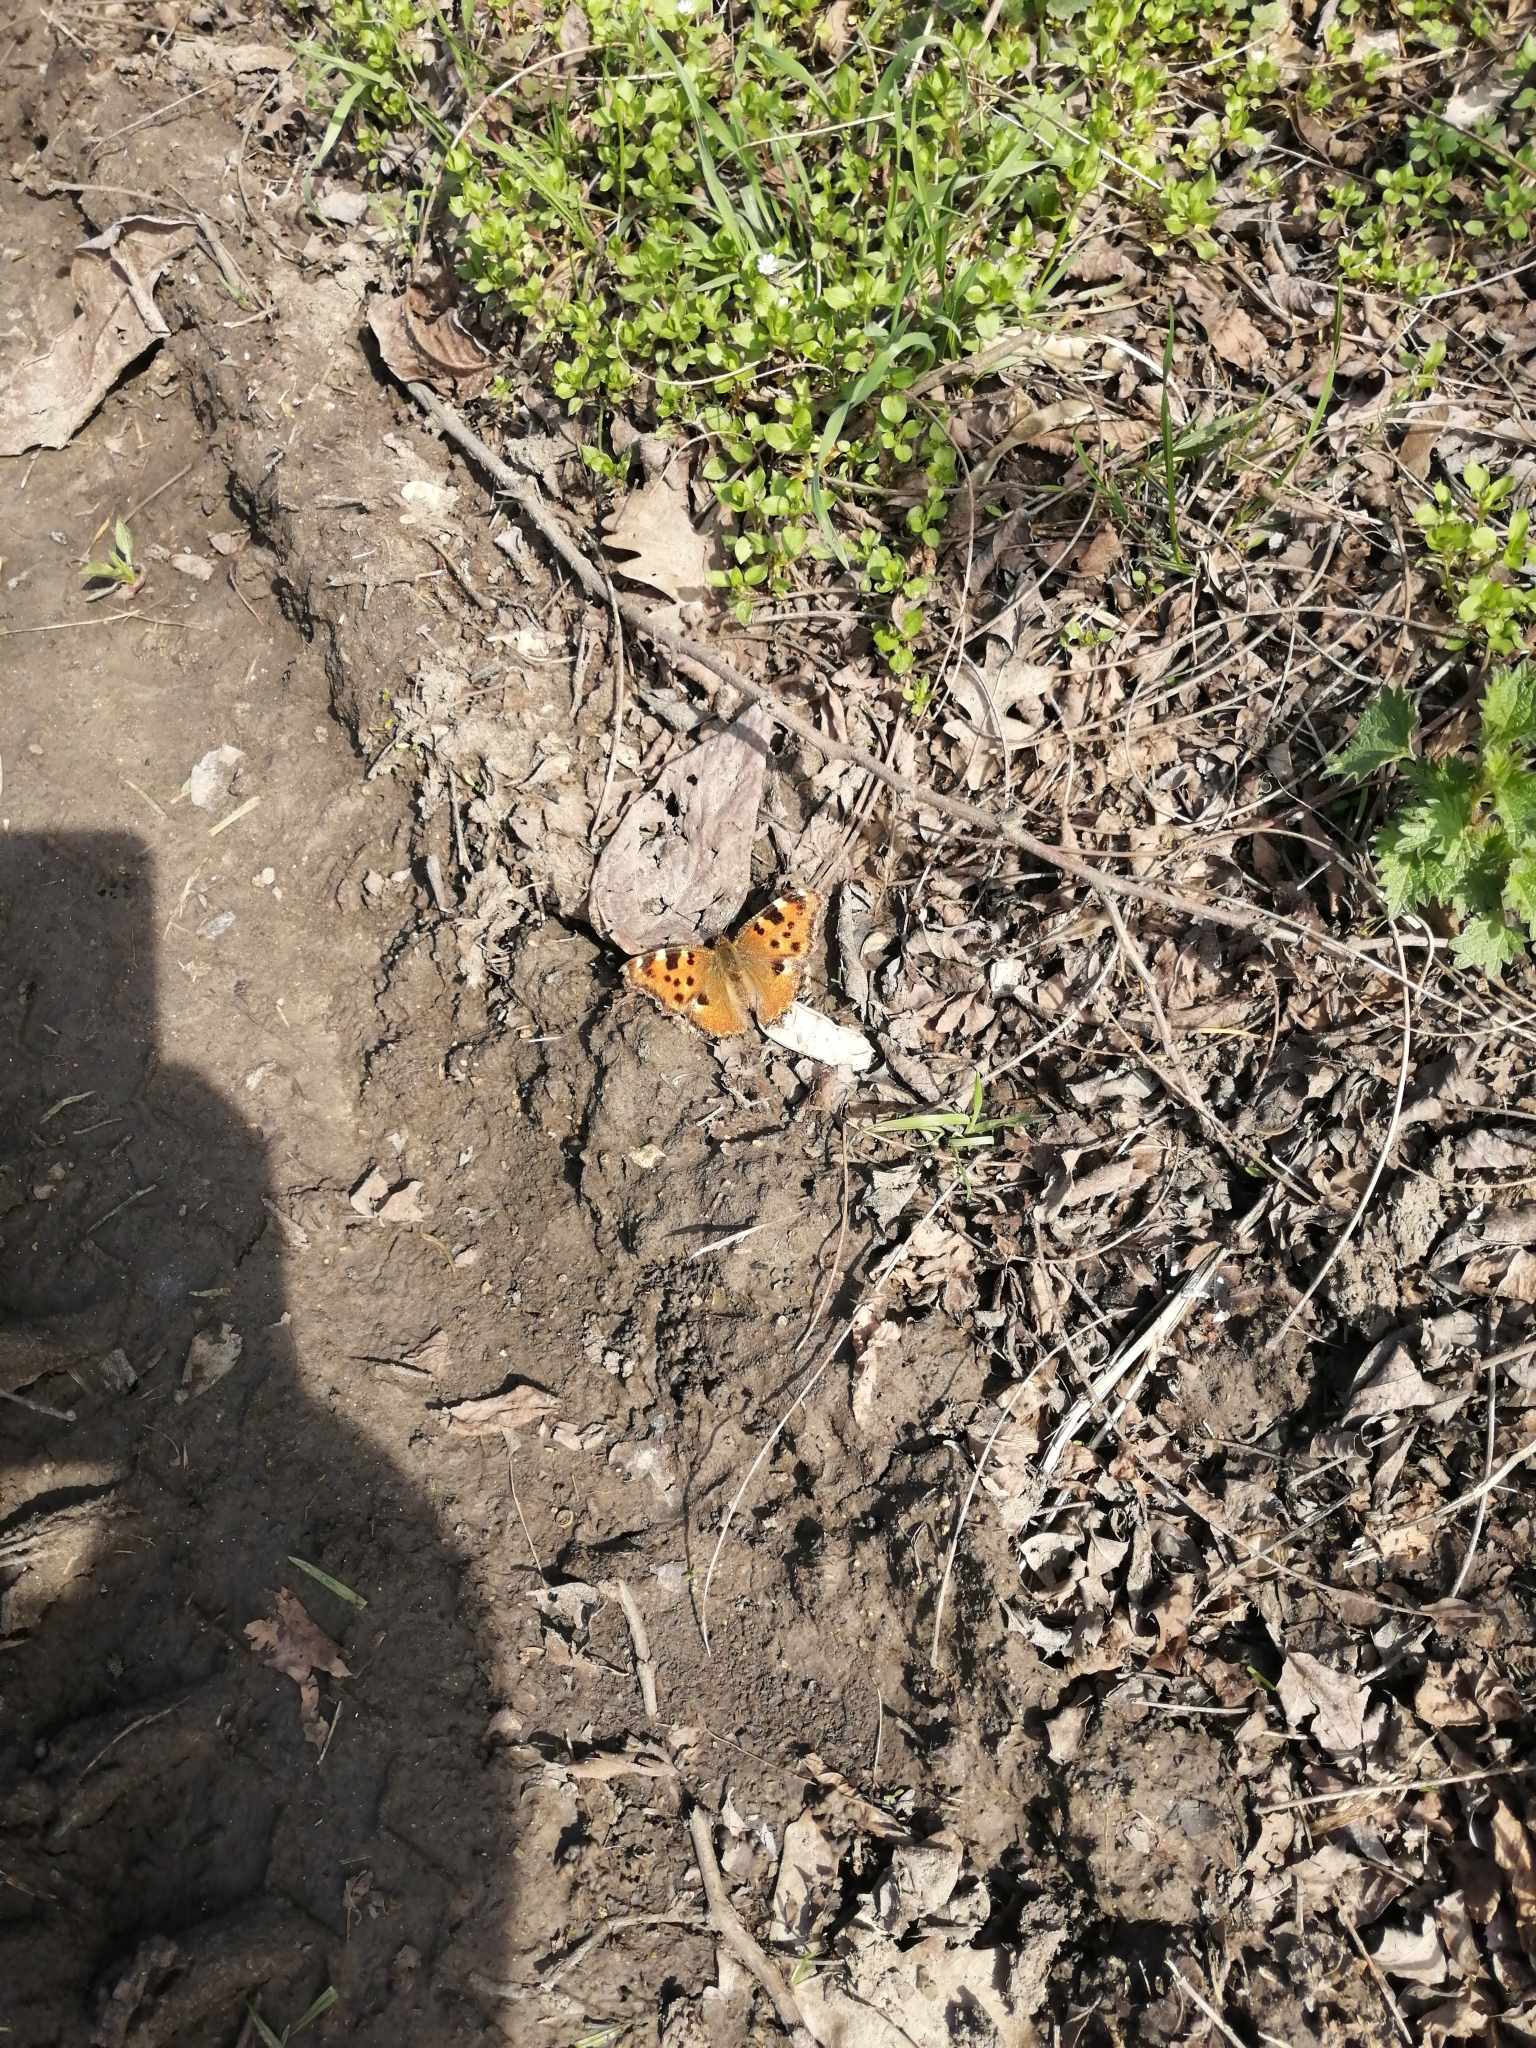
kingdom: Animalia
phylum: Arthropoda
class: Insecta
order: Lepidoptera
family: Nymphalidae
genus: Nymphalis
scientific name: Nymphalis polychloros
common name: Large tortoiseshell
